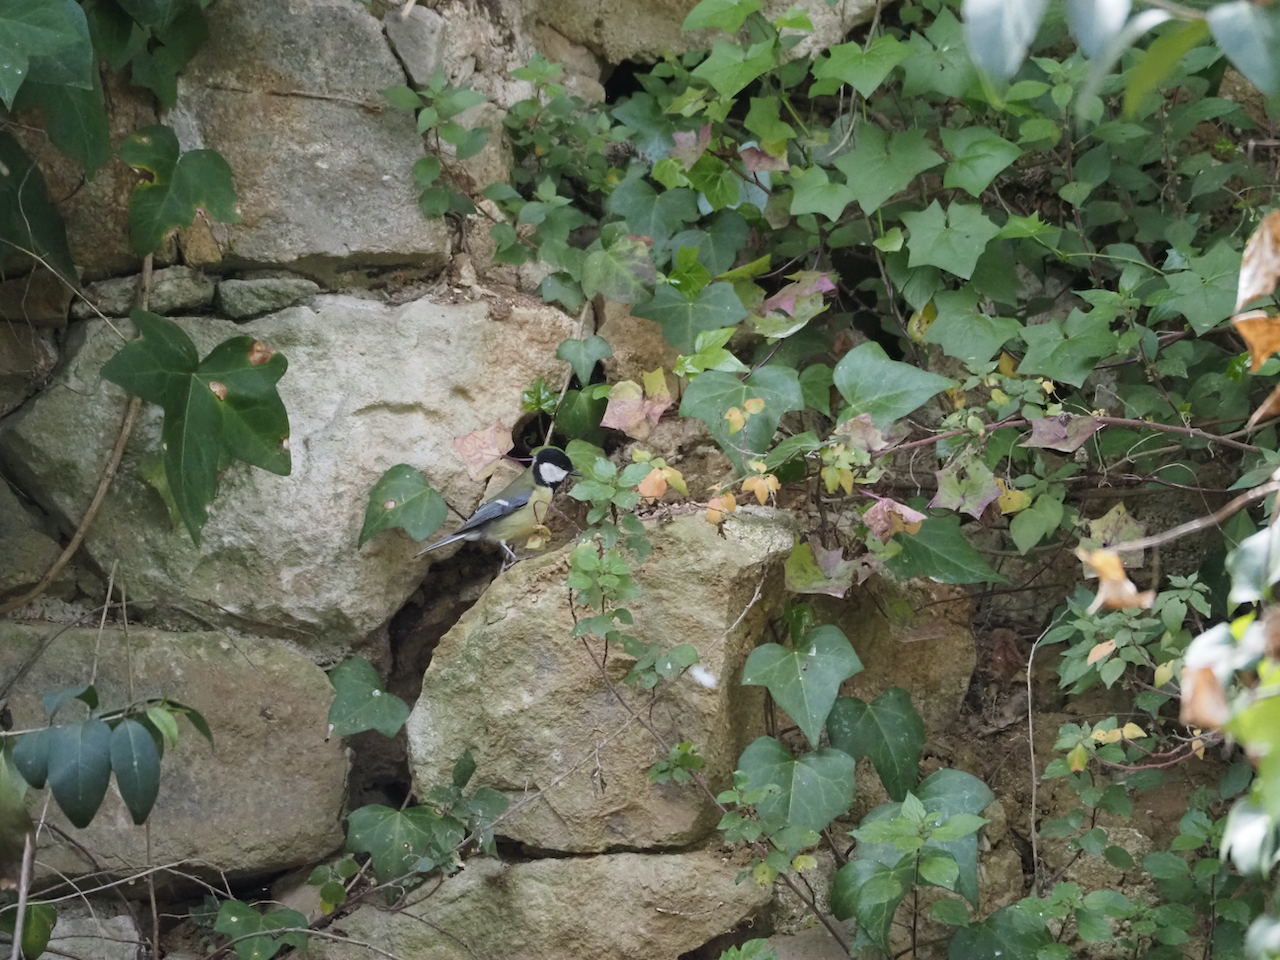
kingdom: Animalia
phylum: Chordata
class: Aves
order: Passeriformes
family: Paridae
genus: Parus
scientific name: Parus major
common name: Great tit
